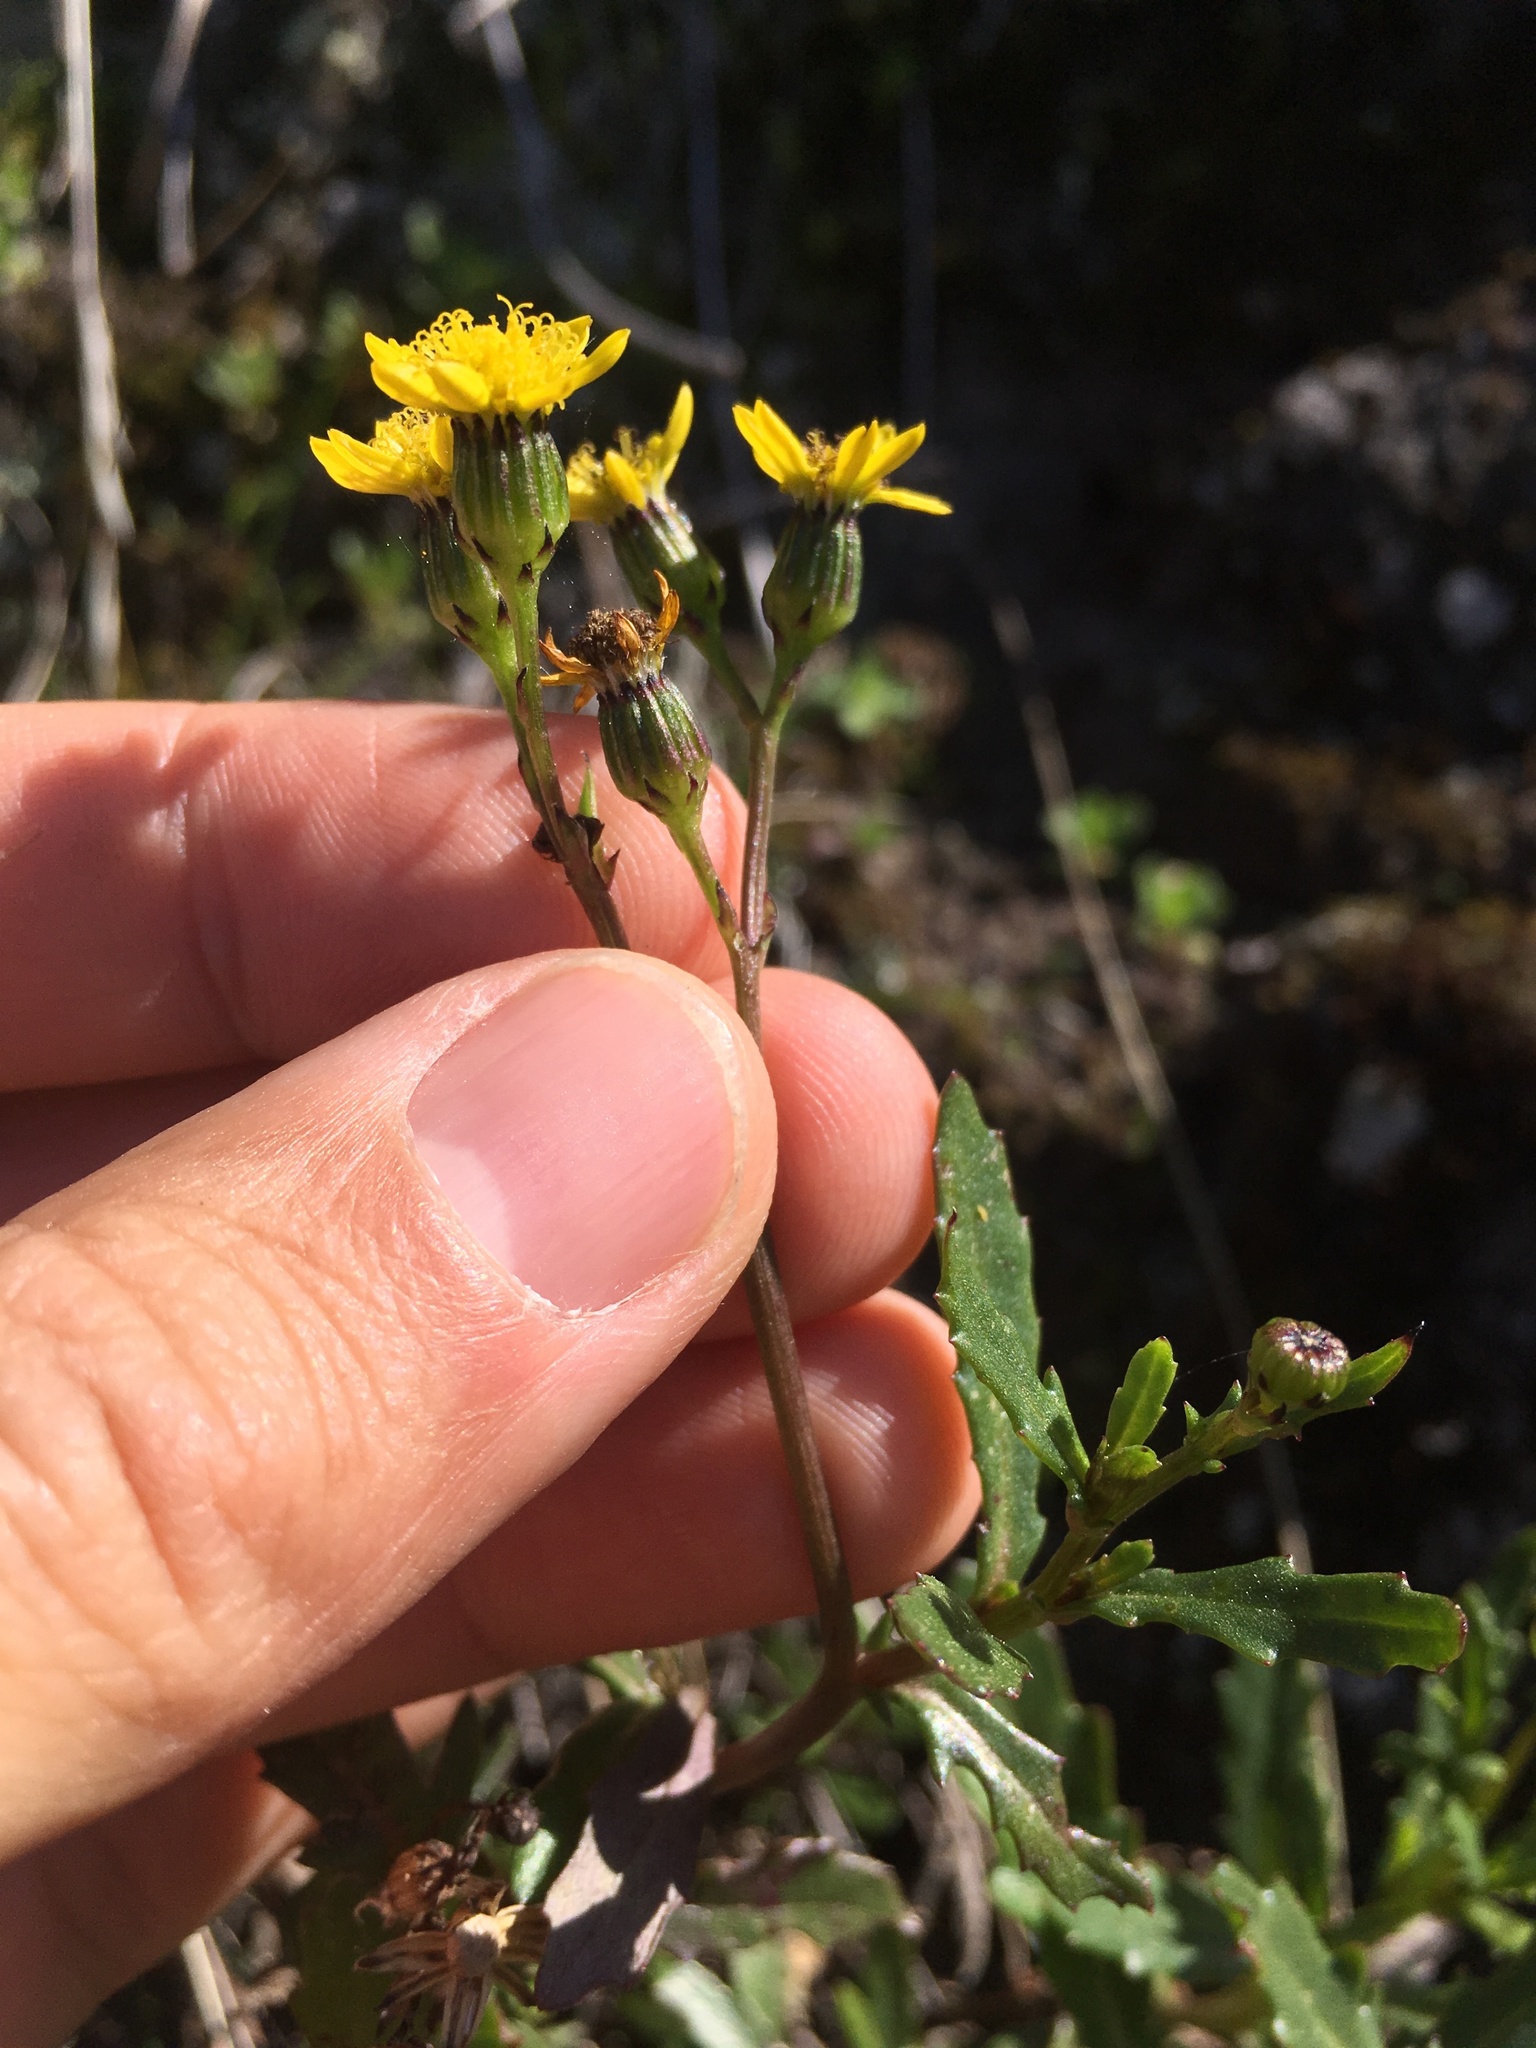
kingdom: Plantae
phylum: Tracheophyta
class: Magnoliopsida
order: Asterales
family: Asteraceae
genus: Senecio
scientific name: Senecio matatini
